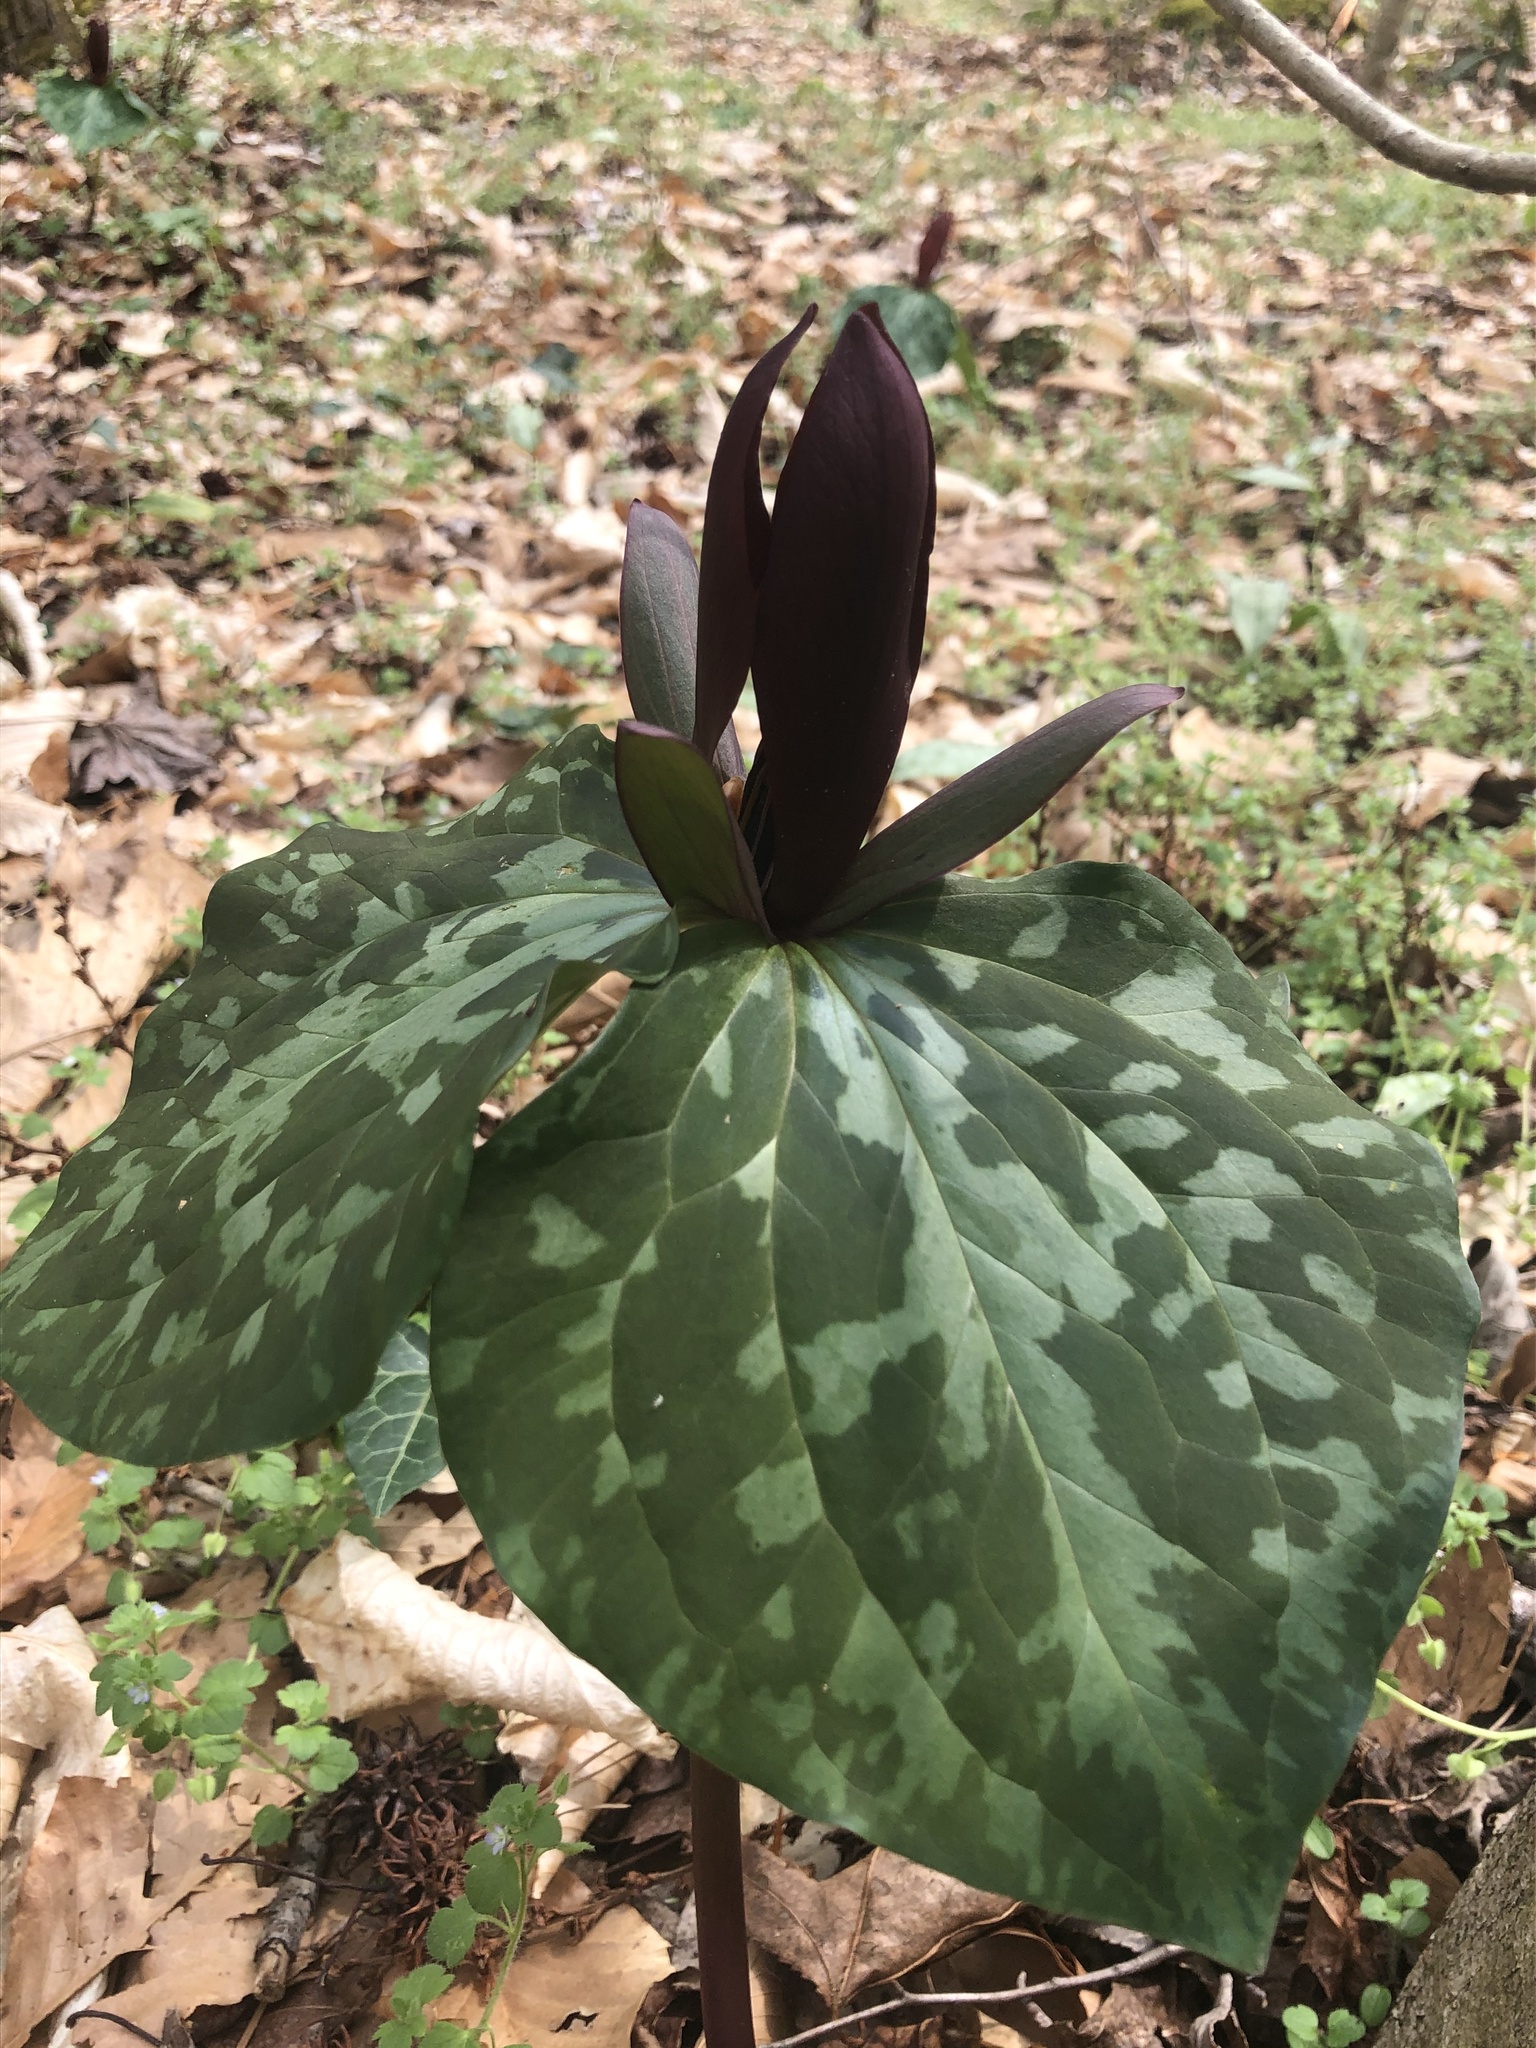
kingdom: Plantae
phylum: Tracheophyta
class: Liliopsida
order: Liliales
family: Melanthiaceae
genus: Trillium
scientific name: Trillium cuneatum
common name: Cuneate trillium
